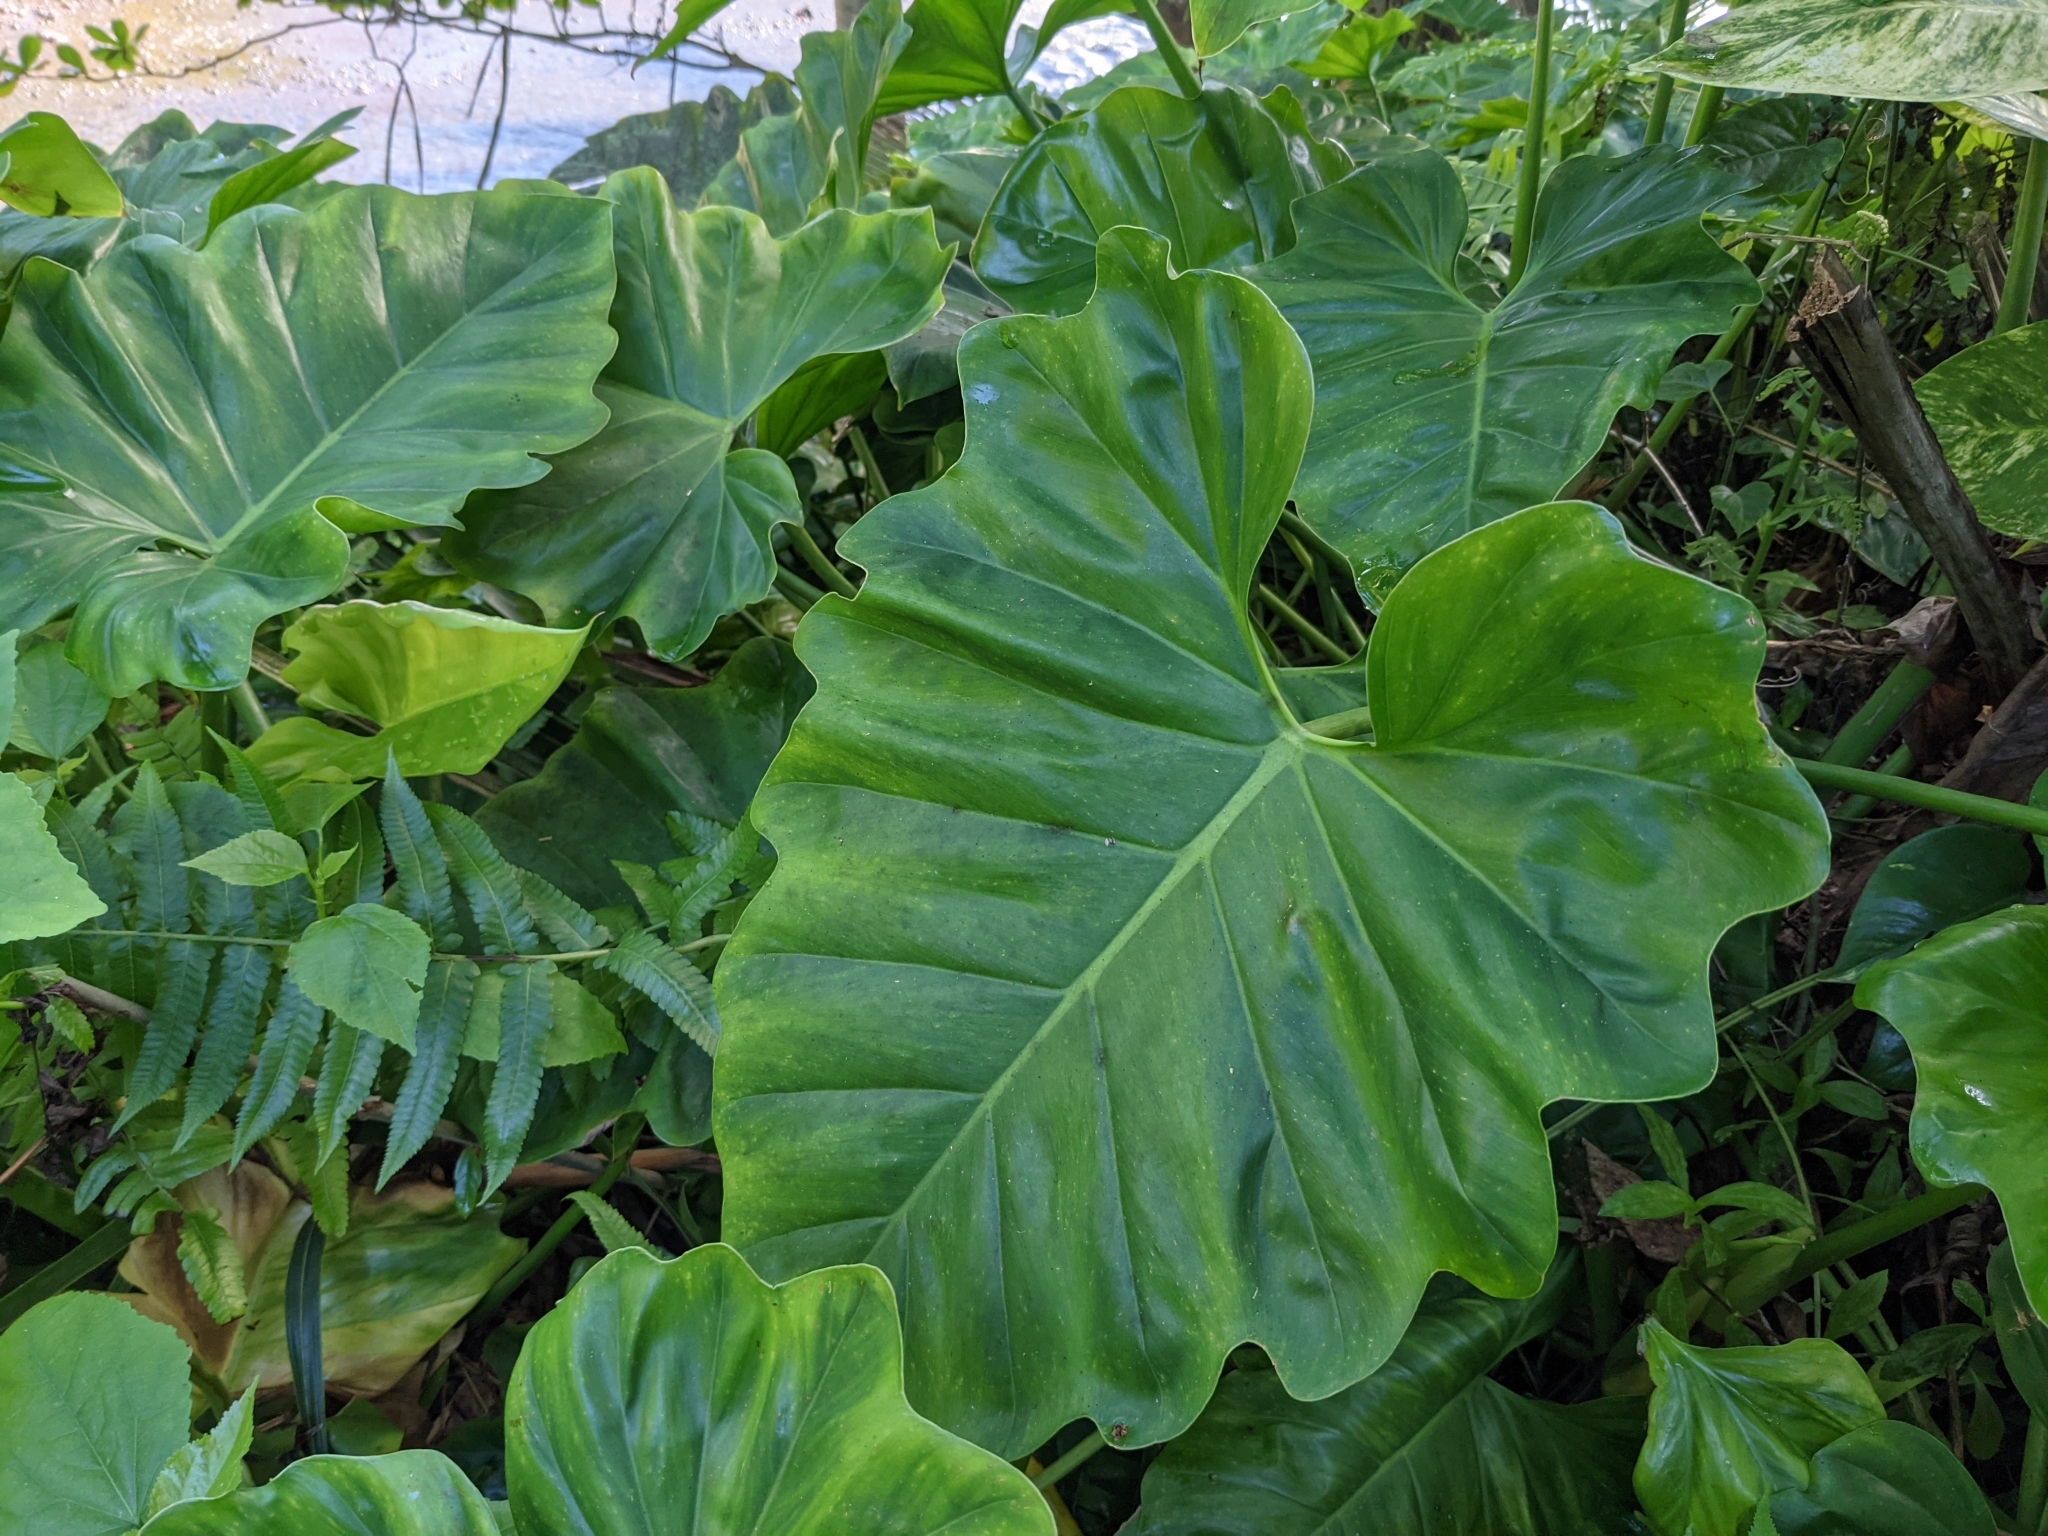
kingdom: Plantae
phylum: Tracheophyta
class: Liliopsida
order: Alismatales
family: Araceae
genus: Philodendron
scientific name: Philodendron subincisum
